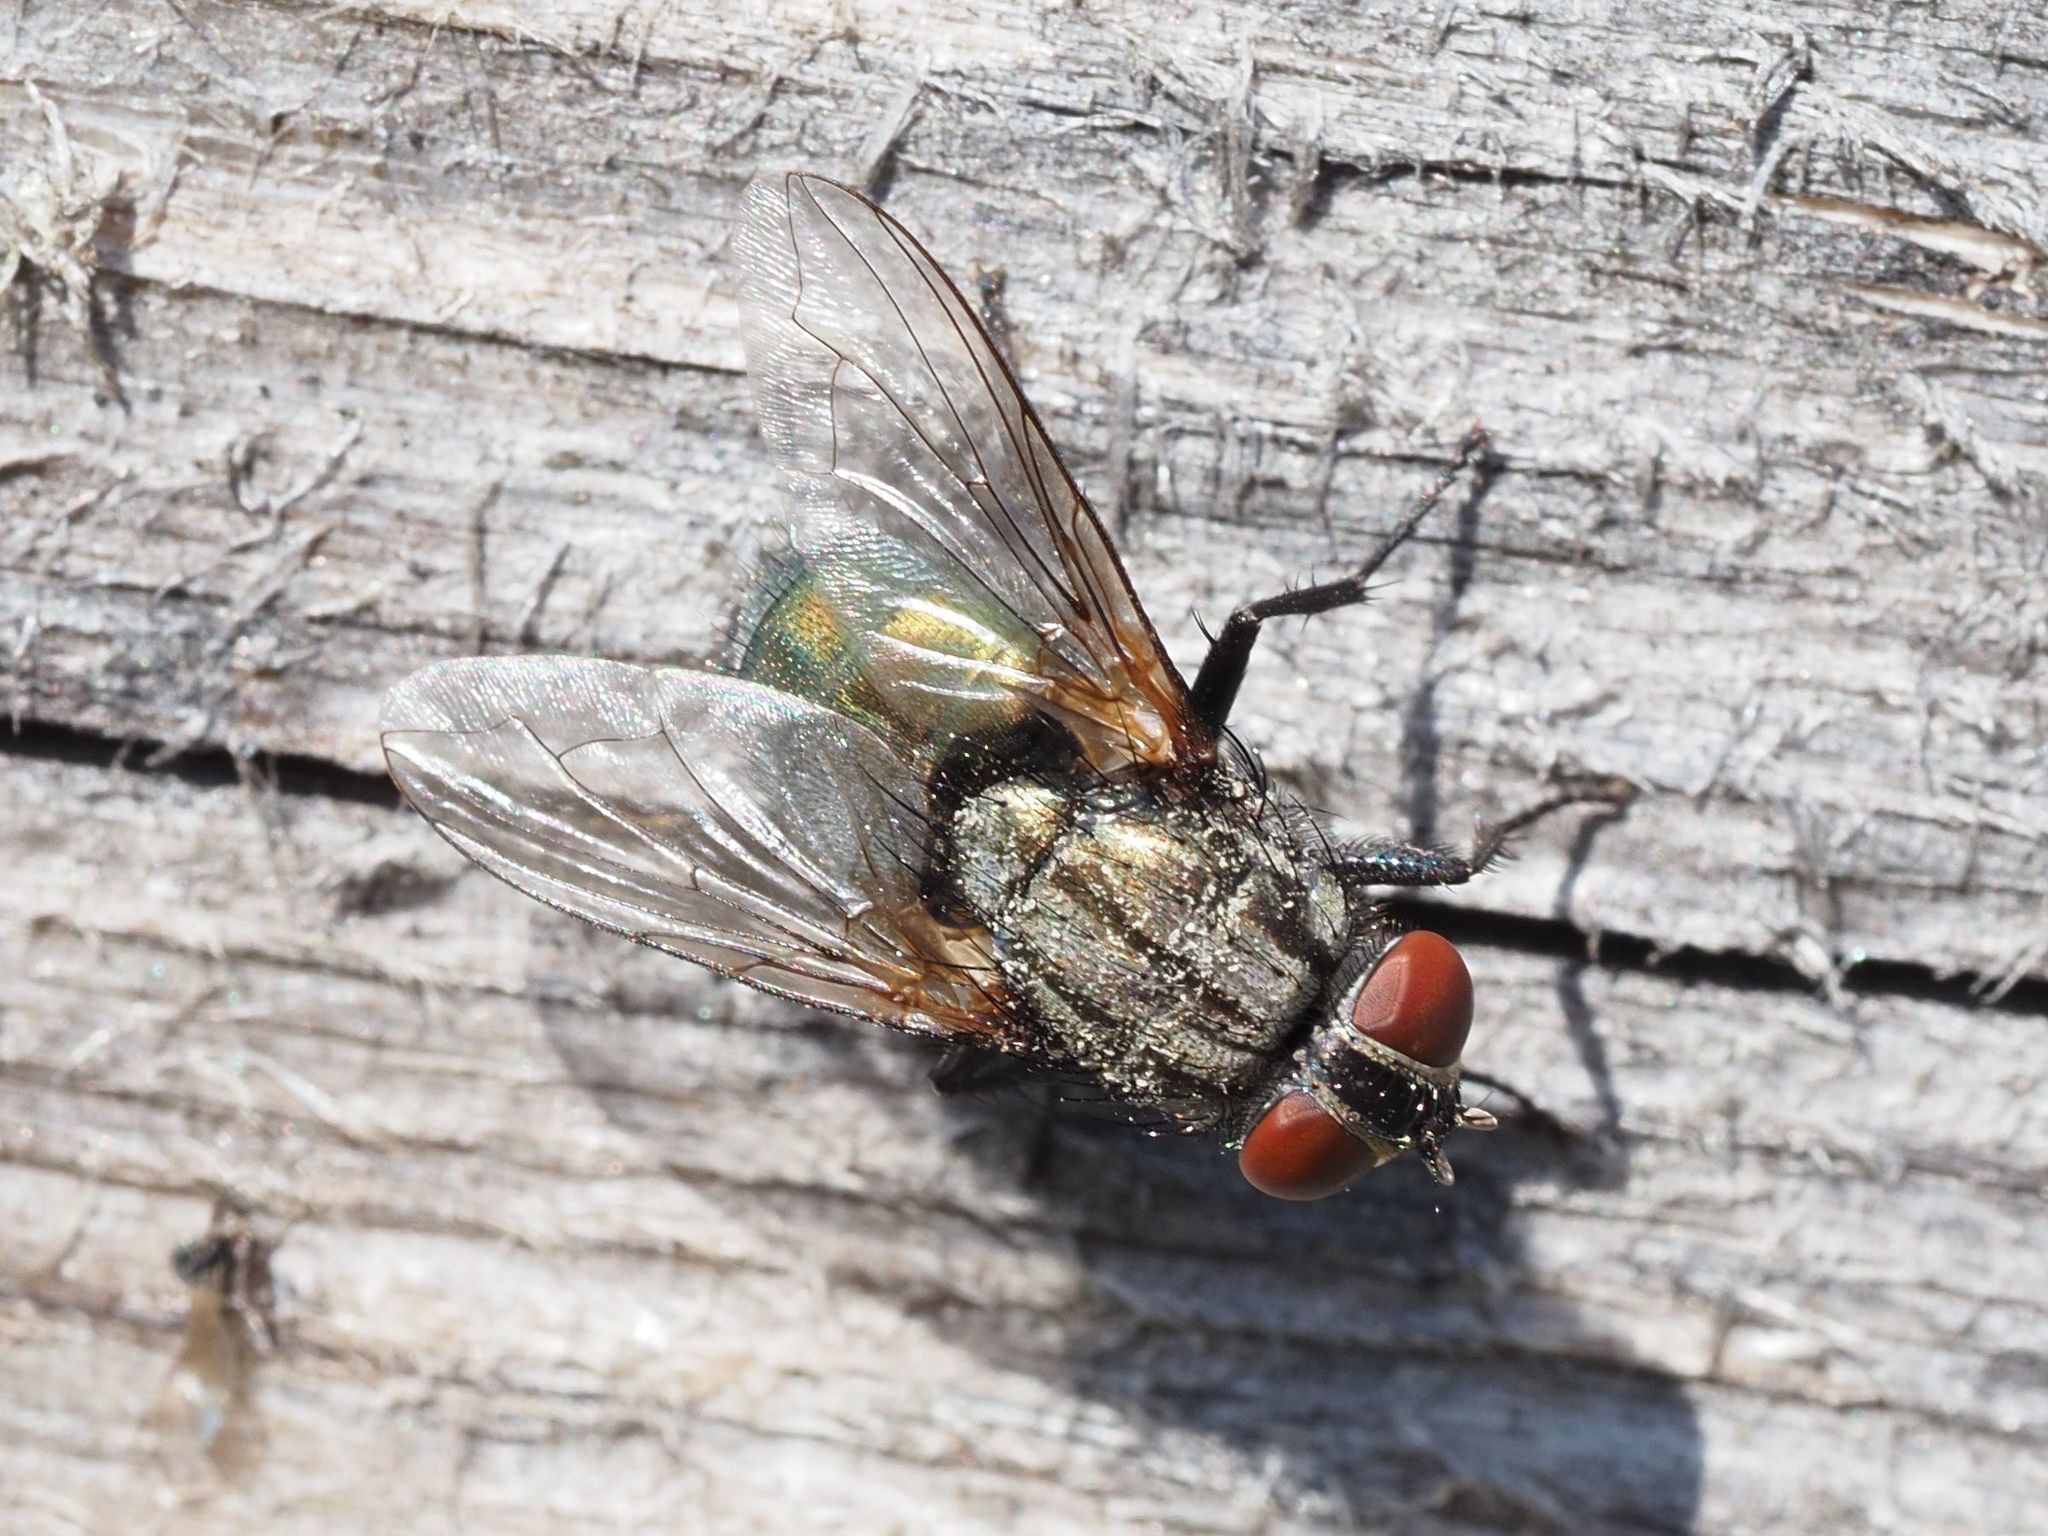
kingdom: Animalia
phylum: Arthropoda
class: Insecta
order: Diptera
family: Calliphoridae
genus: Protocalliphora
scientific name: Protocalliphora azurea
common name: Bird blowfly
